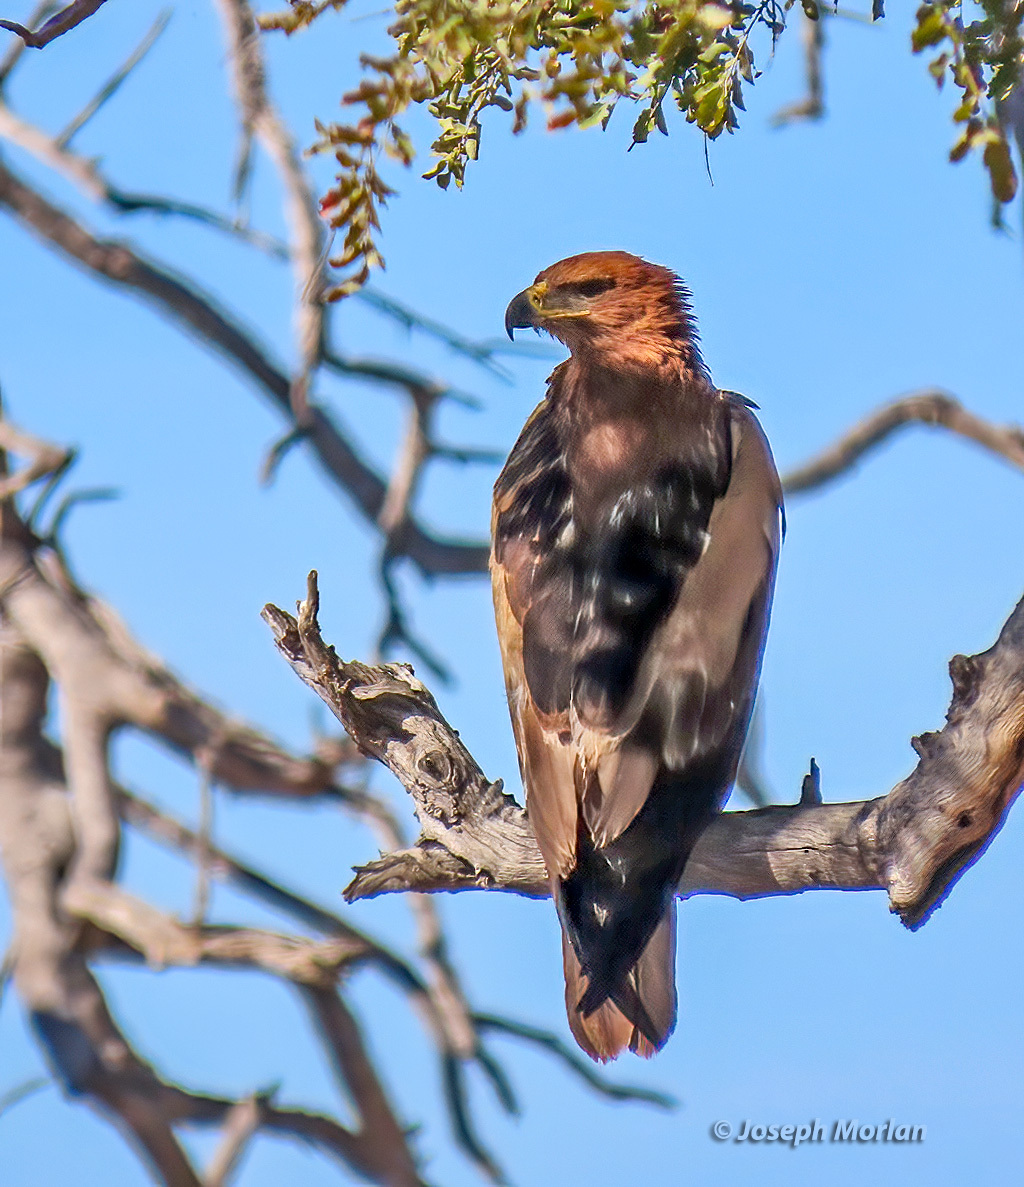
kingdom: Animalia
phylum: Chordata
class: Aves
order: Accipitriformes
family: Accipitridae
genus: Aquila
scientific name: Aquila rapax
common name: Tawny eagle
